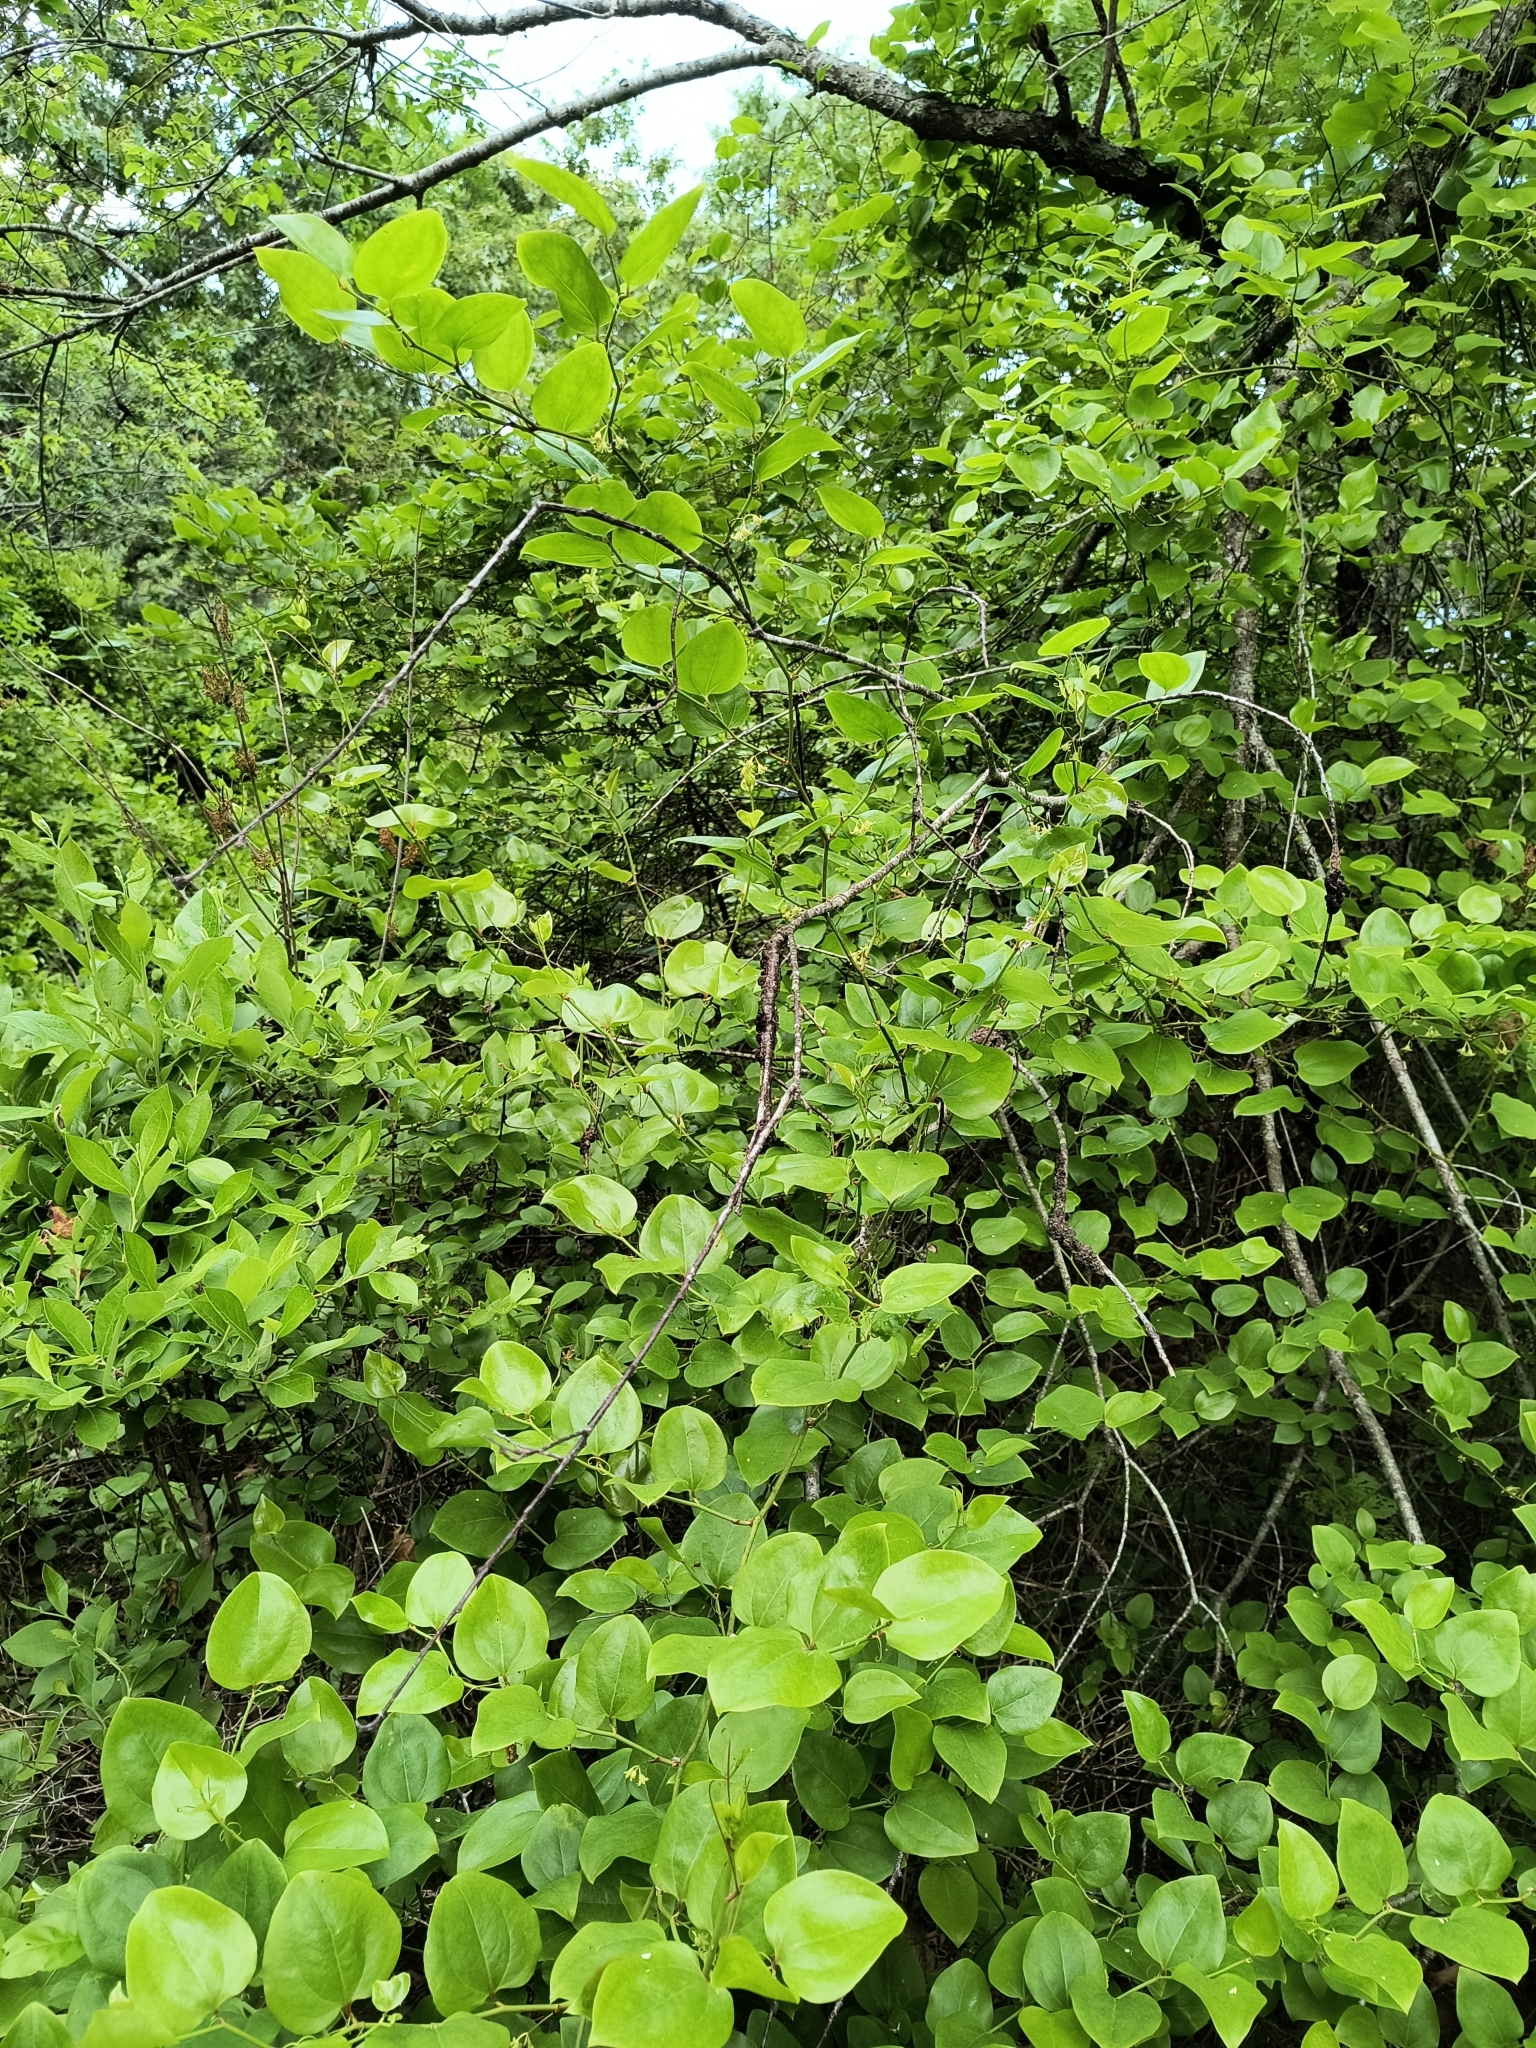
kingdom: Plantae
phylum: Tracheophyta
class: Liliopsida
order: Liliales
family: Smilacaceae
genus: Smilax
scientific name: Smilax rotundifolia
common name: Bullbriar
